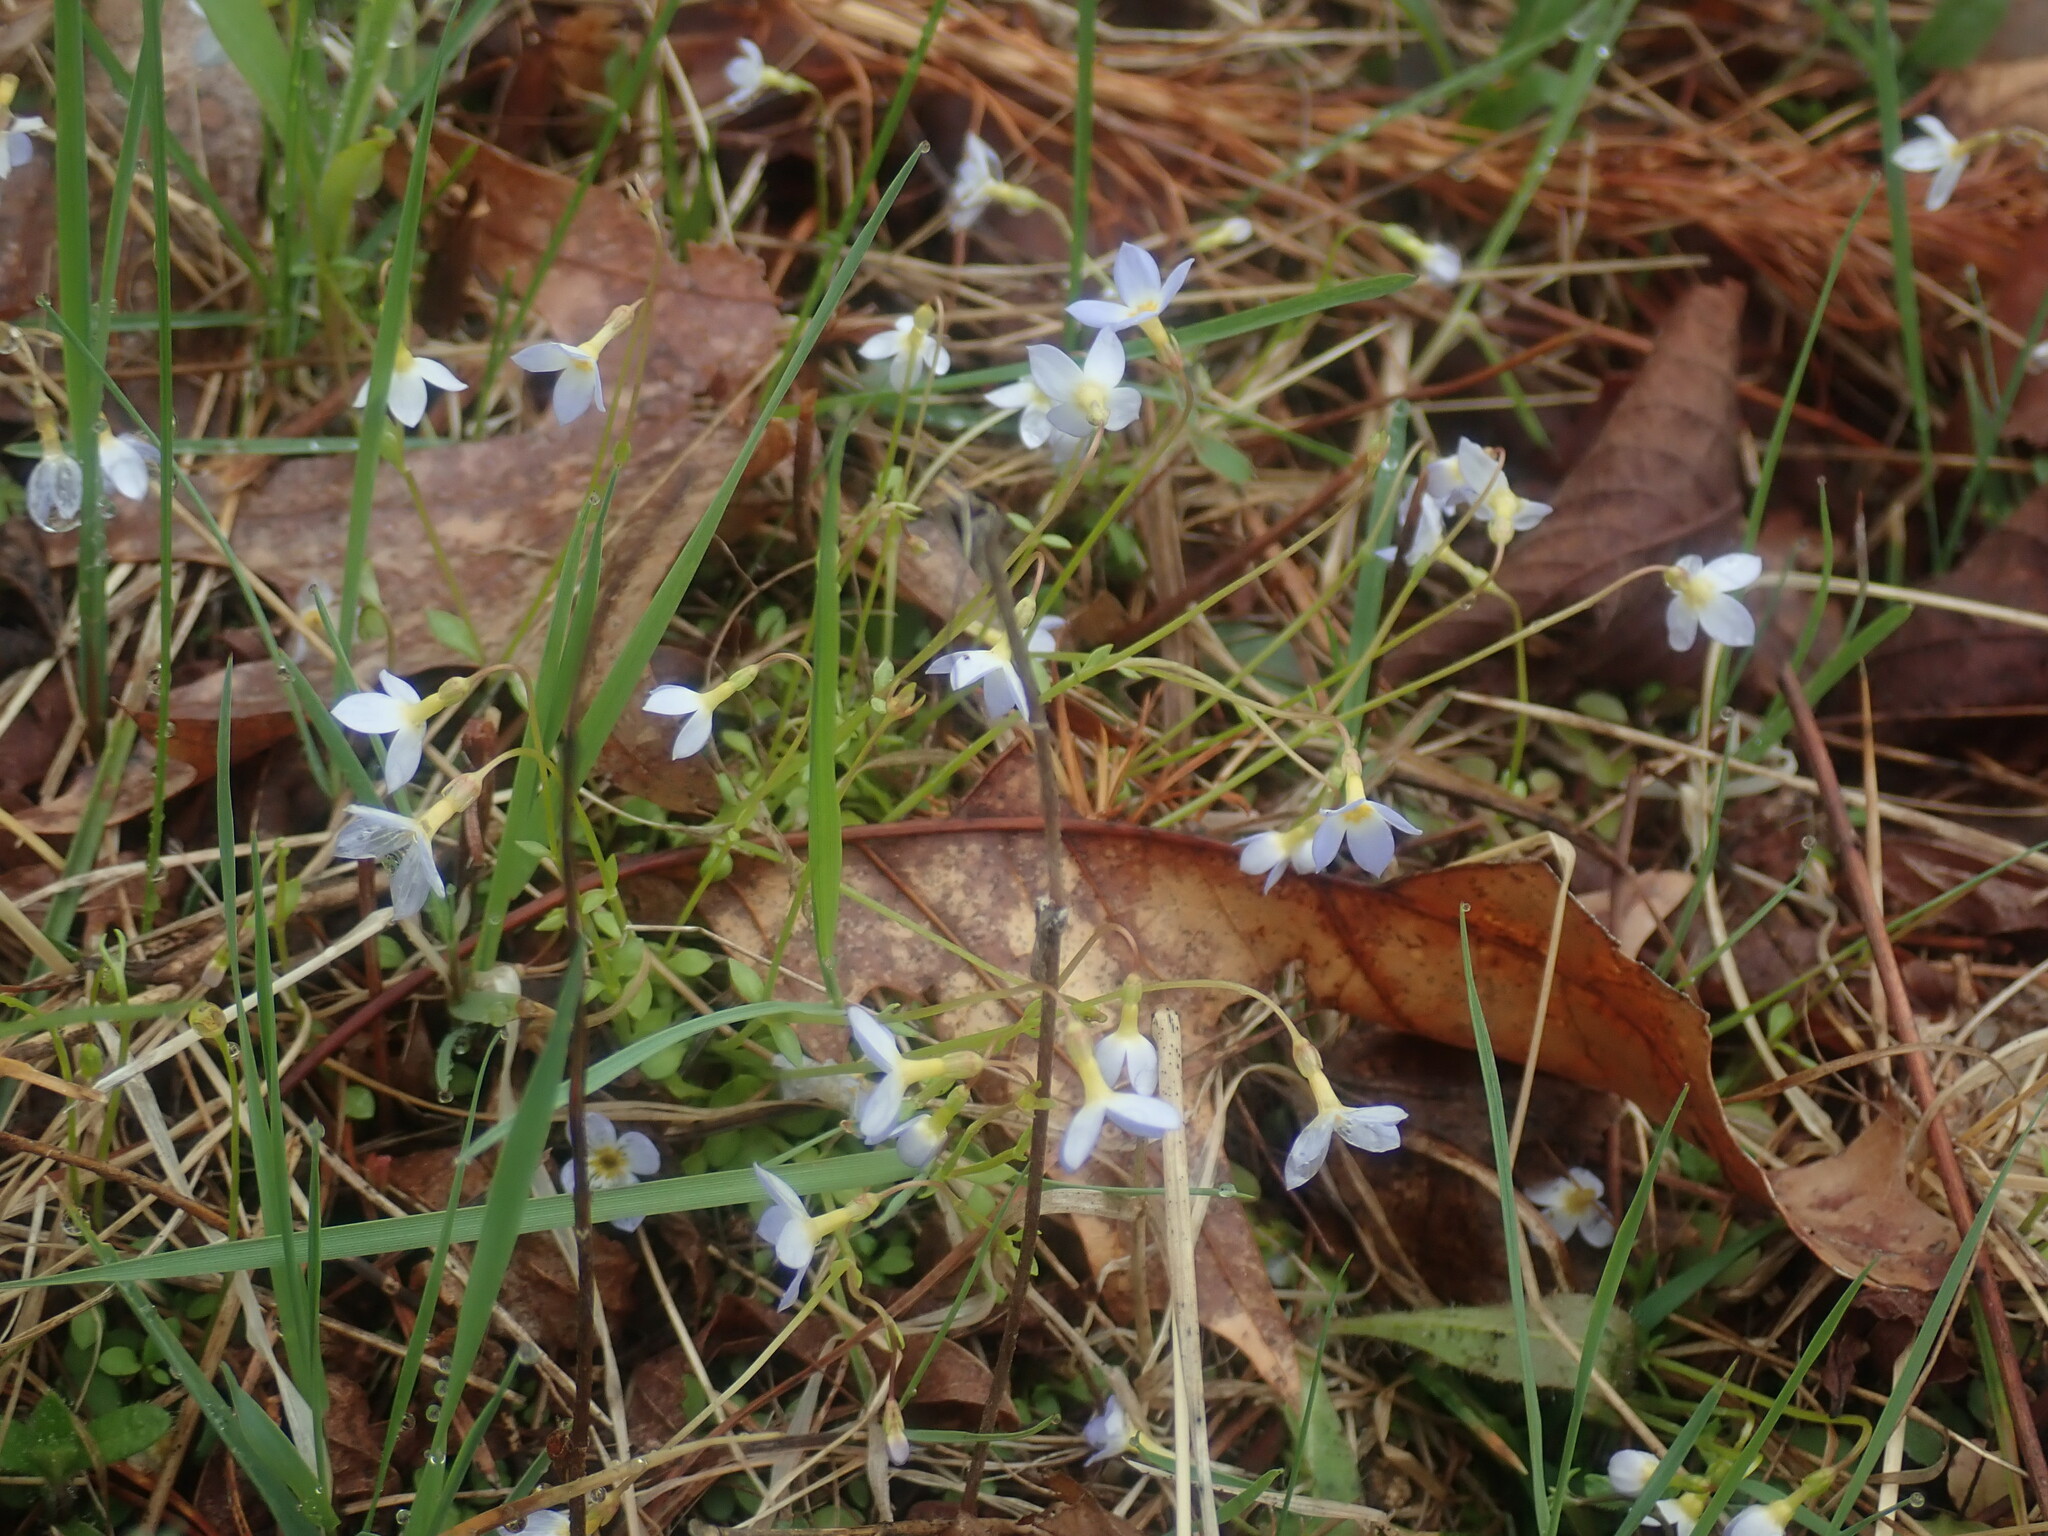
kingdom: Plantae
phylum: Tracheophyta
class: Magnoliopsida
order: Gentianales
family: Rubiaceae
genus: Houstonia
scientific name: Houstonia caerulea
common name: Bluets
